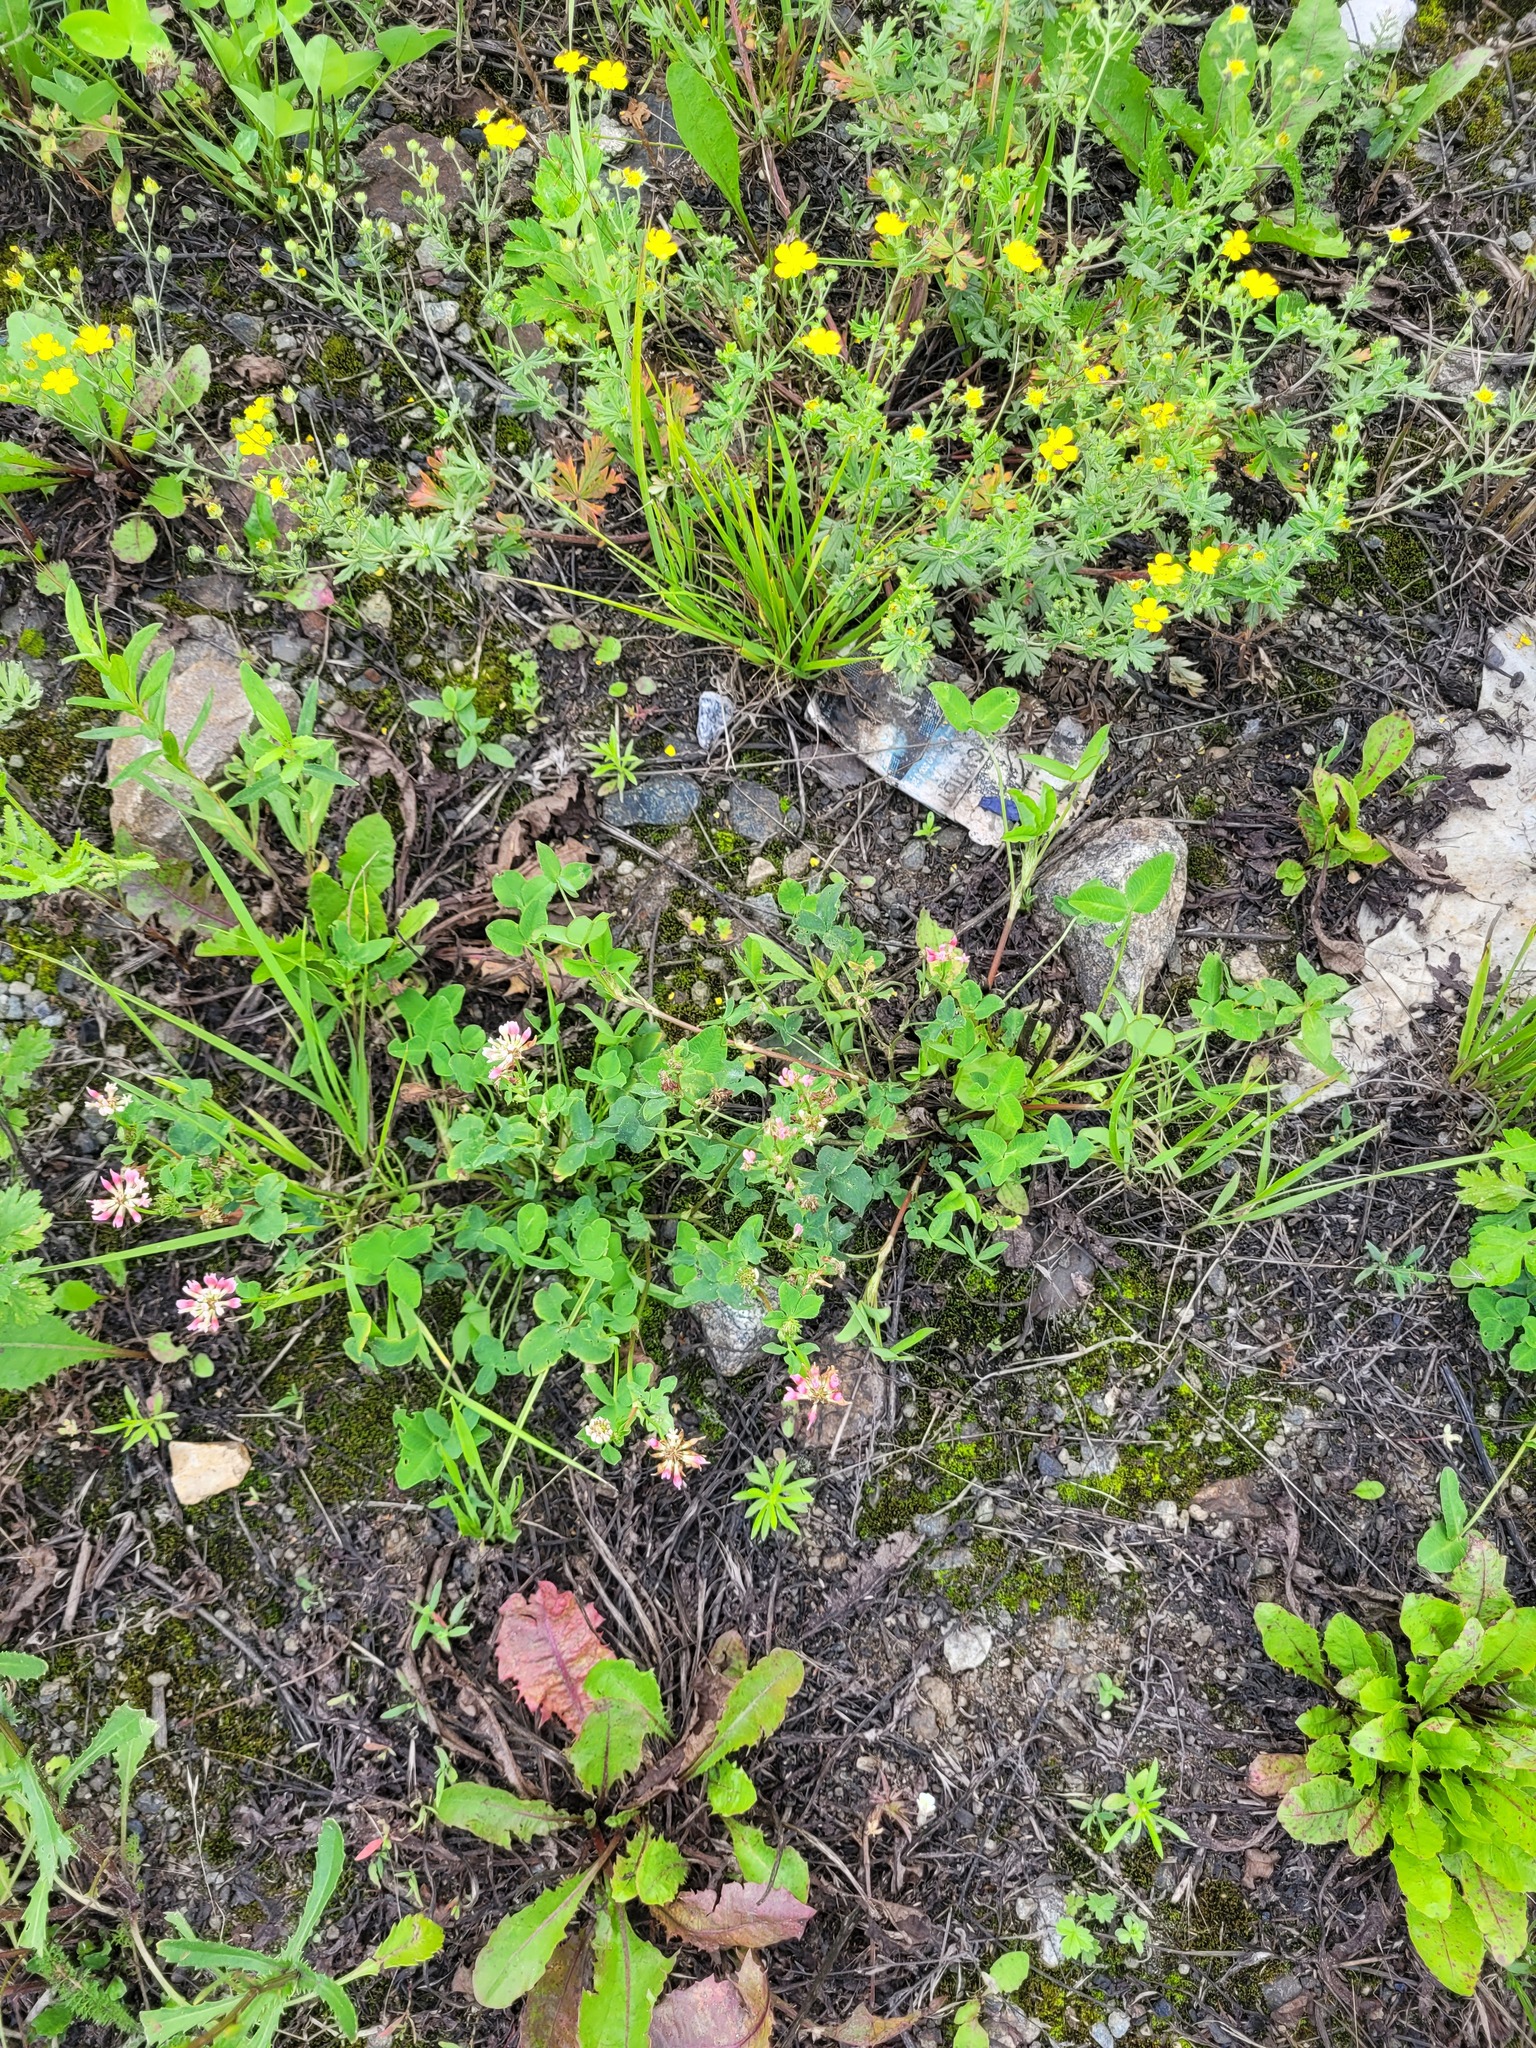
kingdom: Plantae
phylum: Tracheophyta
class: Magnoliopsida
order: Fabales
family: Fabaceae
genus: Trifolium
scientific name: Trifolium hybridum
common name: Alsike clover
